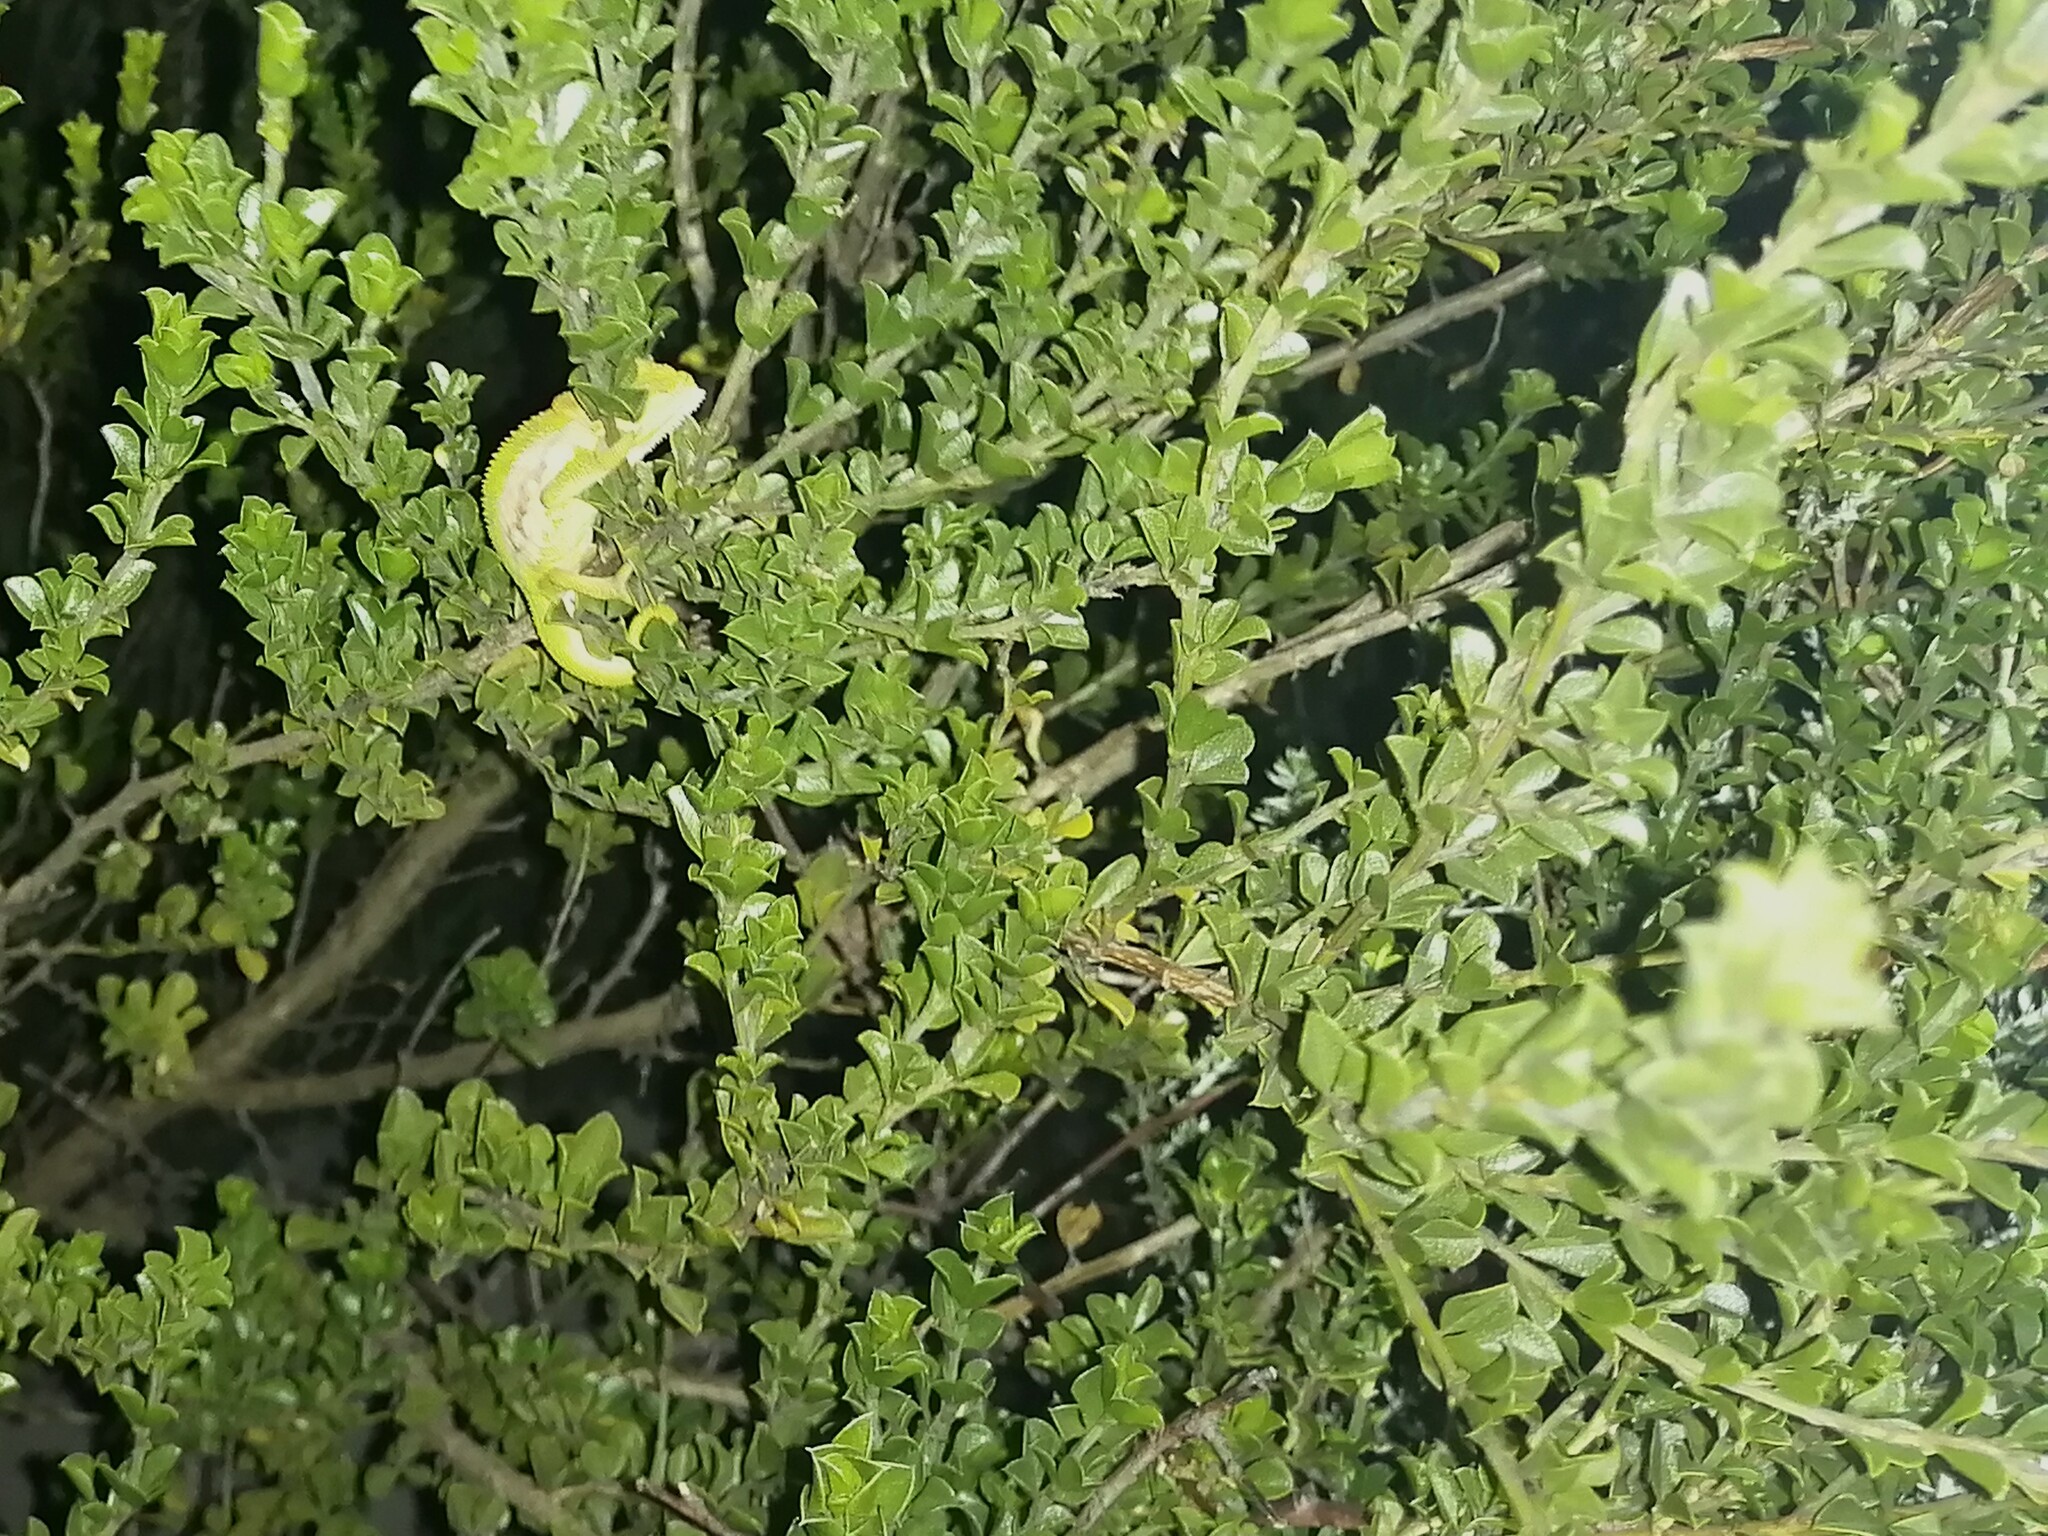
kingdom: Animalia
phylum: Chordata
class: Squamata
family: Chamaeleonidae
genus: Bradypodion
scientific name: Bradypodion pumilum
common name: Cape dwarf chameleon
